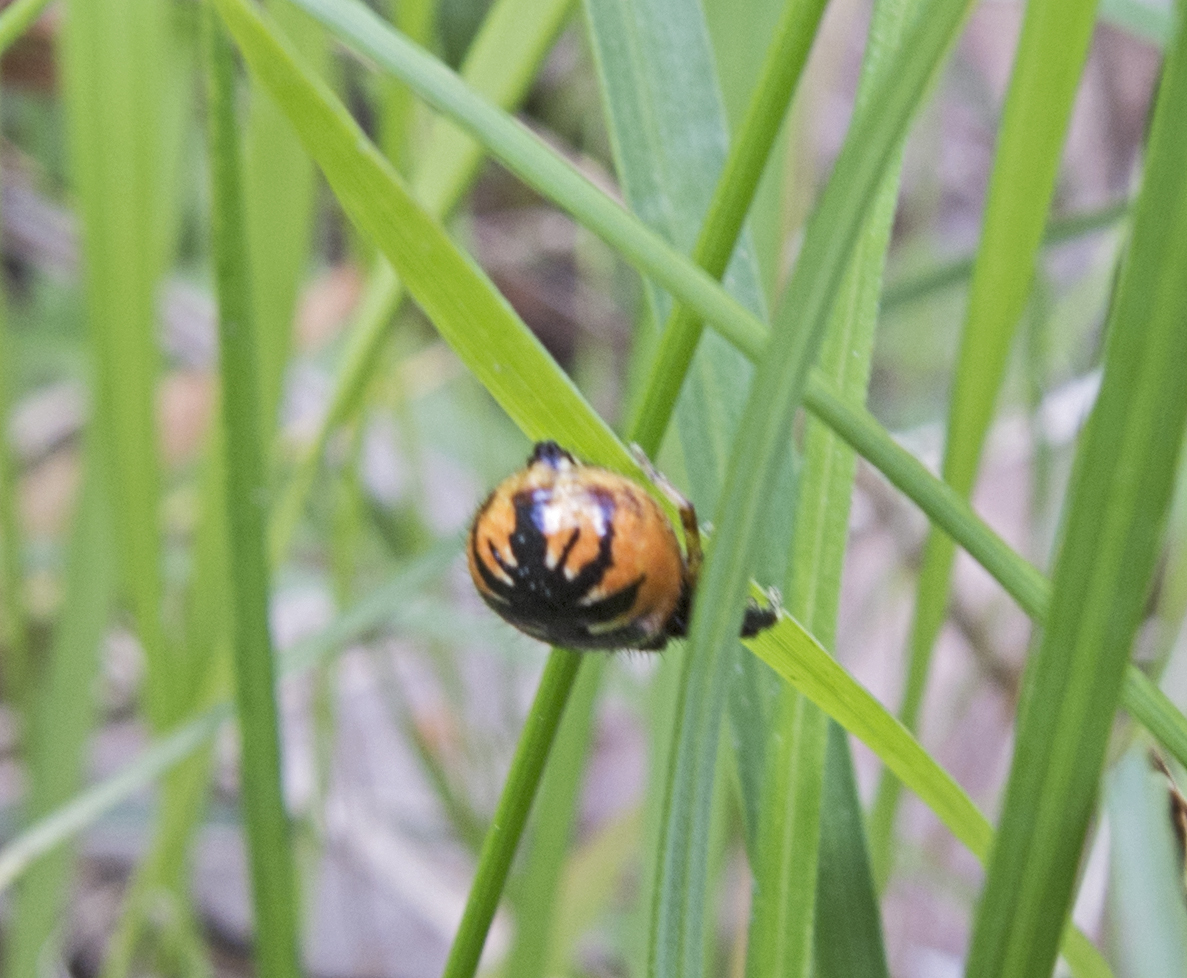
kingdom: Animalia
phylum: Arthropoda
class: Arachnida
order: Araneae
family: Thomisidae
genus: Synema
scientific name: Synema globosum
